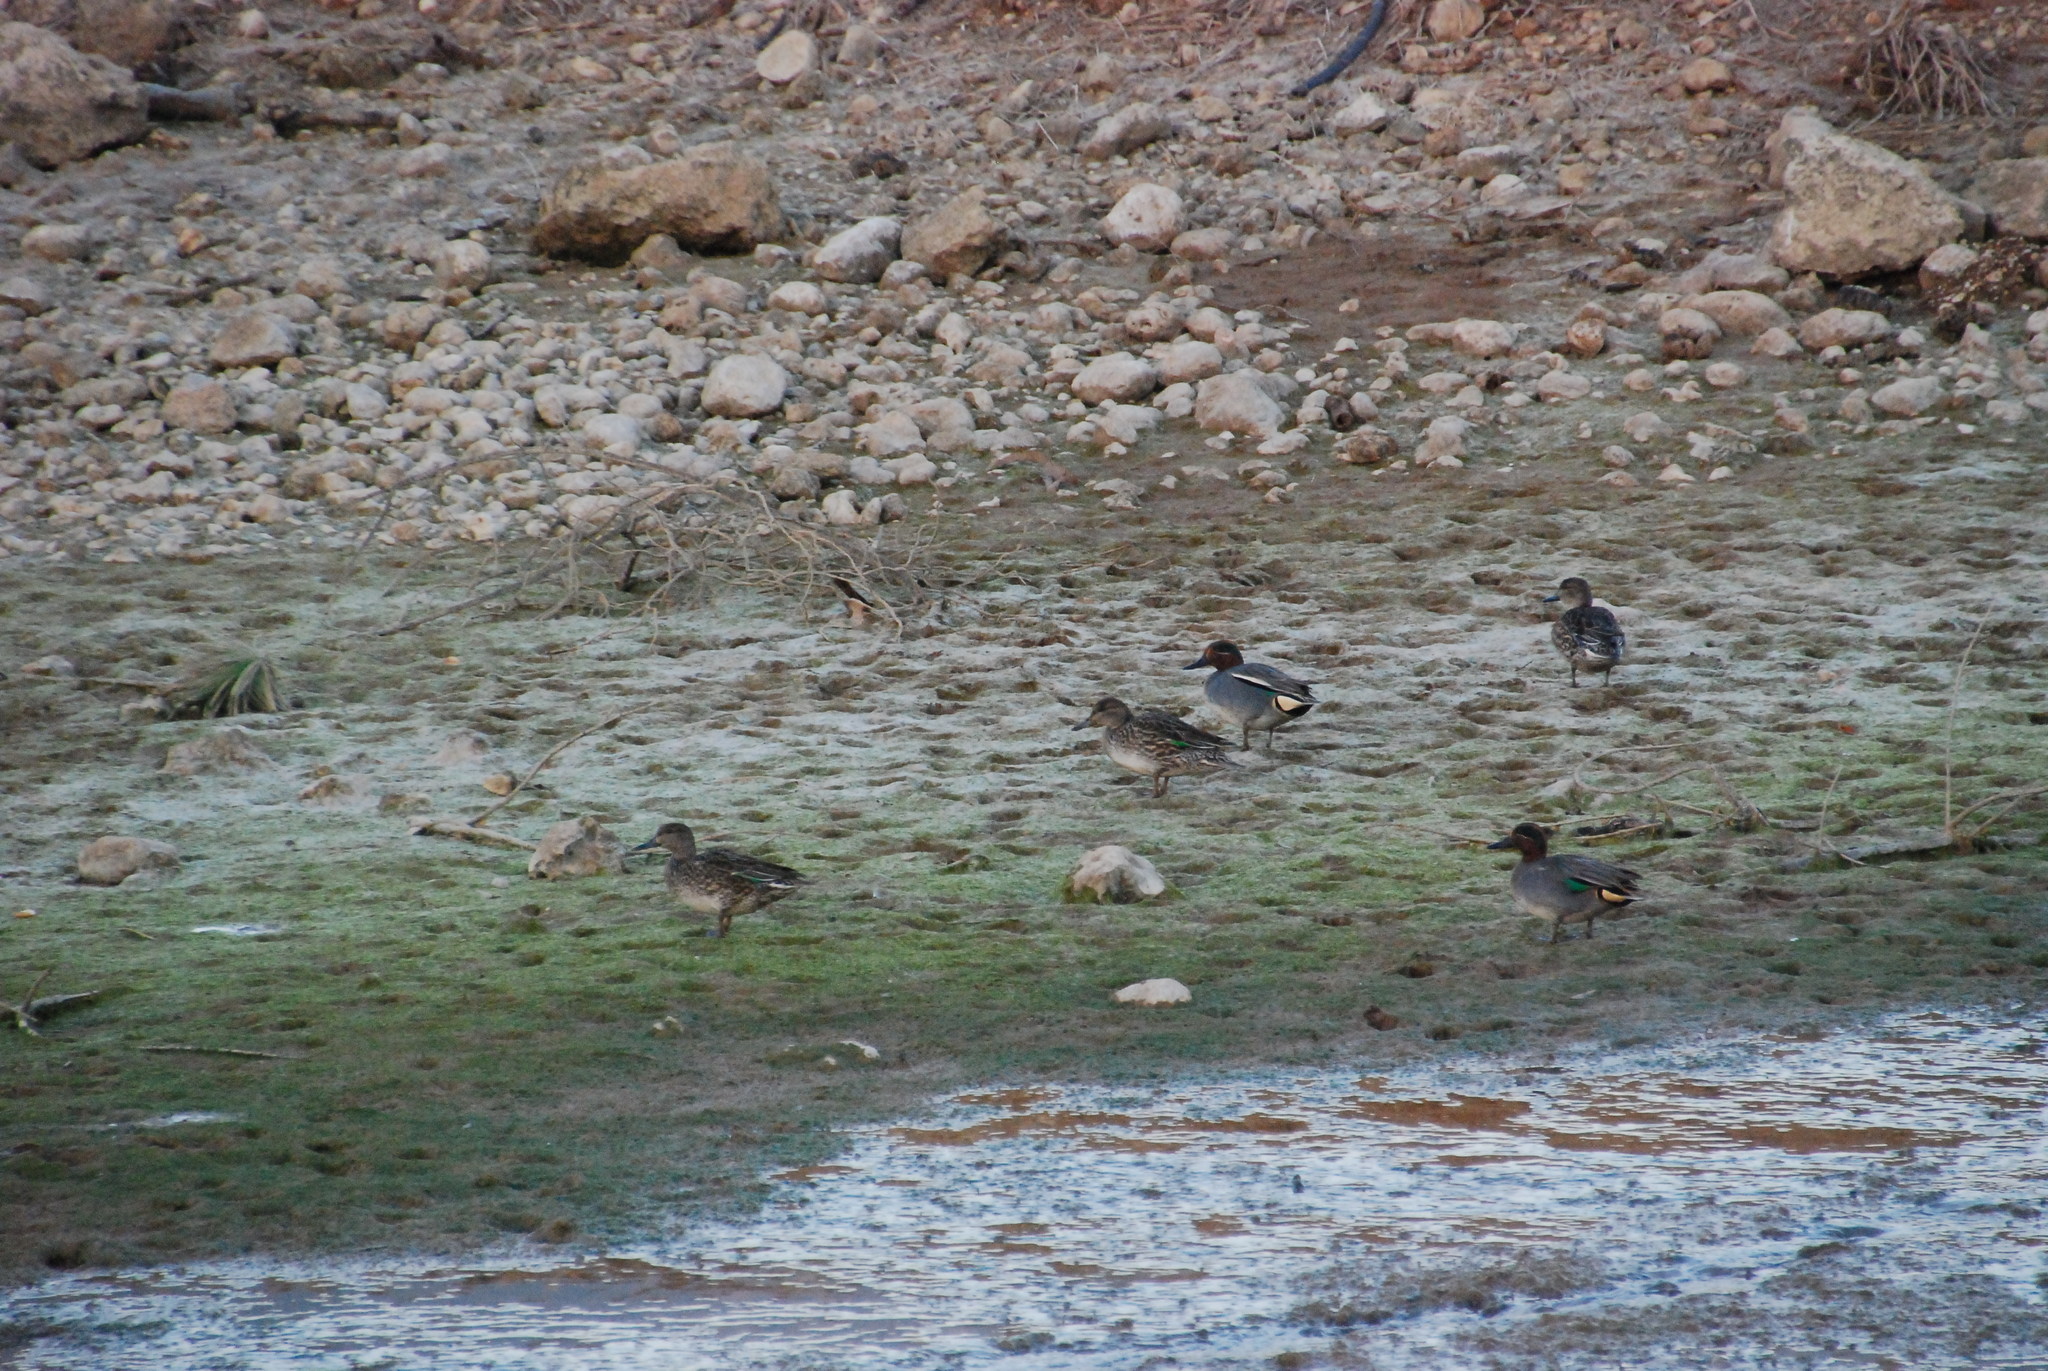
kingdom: Animalia
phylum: Chordata
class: Aves
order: Anseriformes
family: Anatidae
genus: Anas
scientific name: Anas crecca
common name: Eurasian teal
